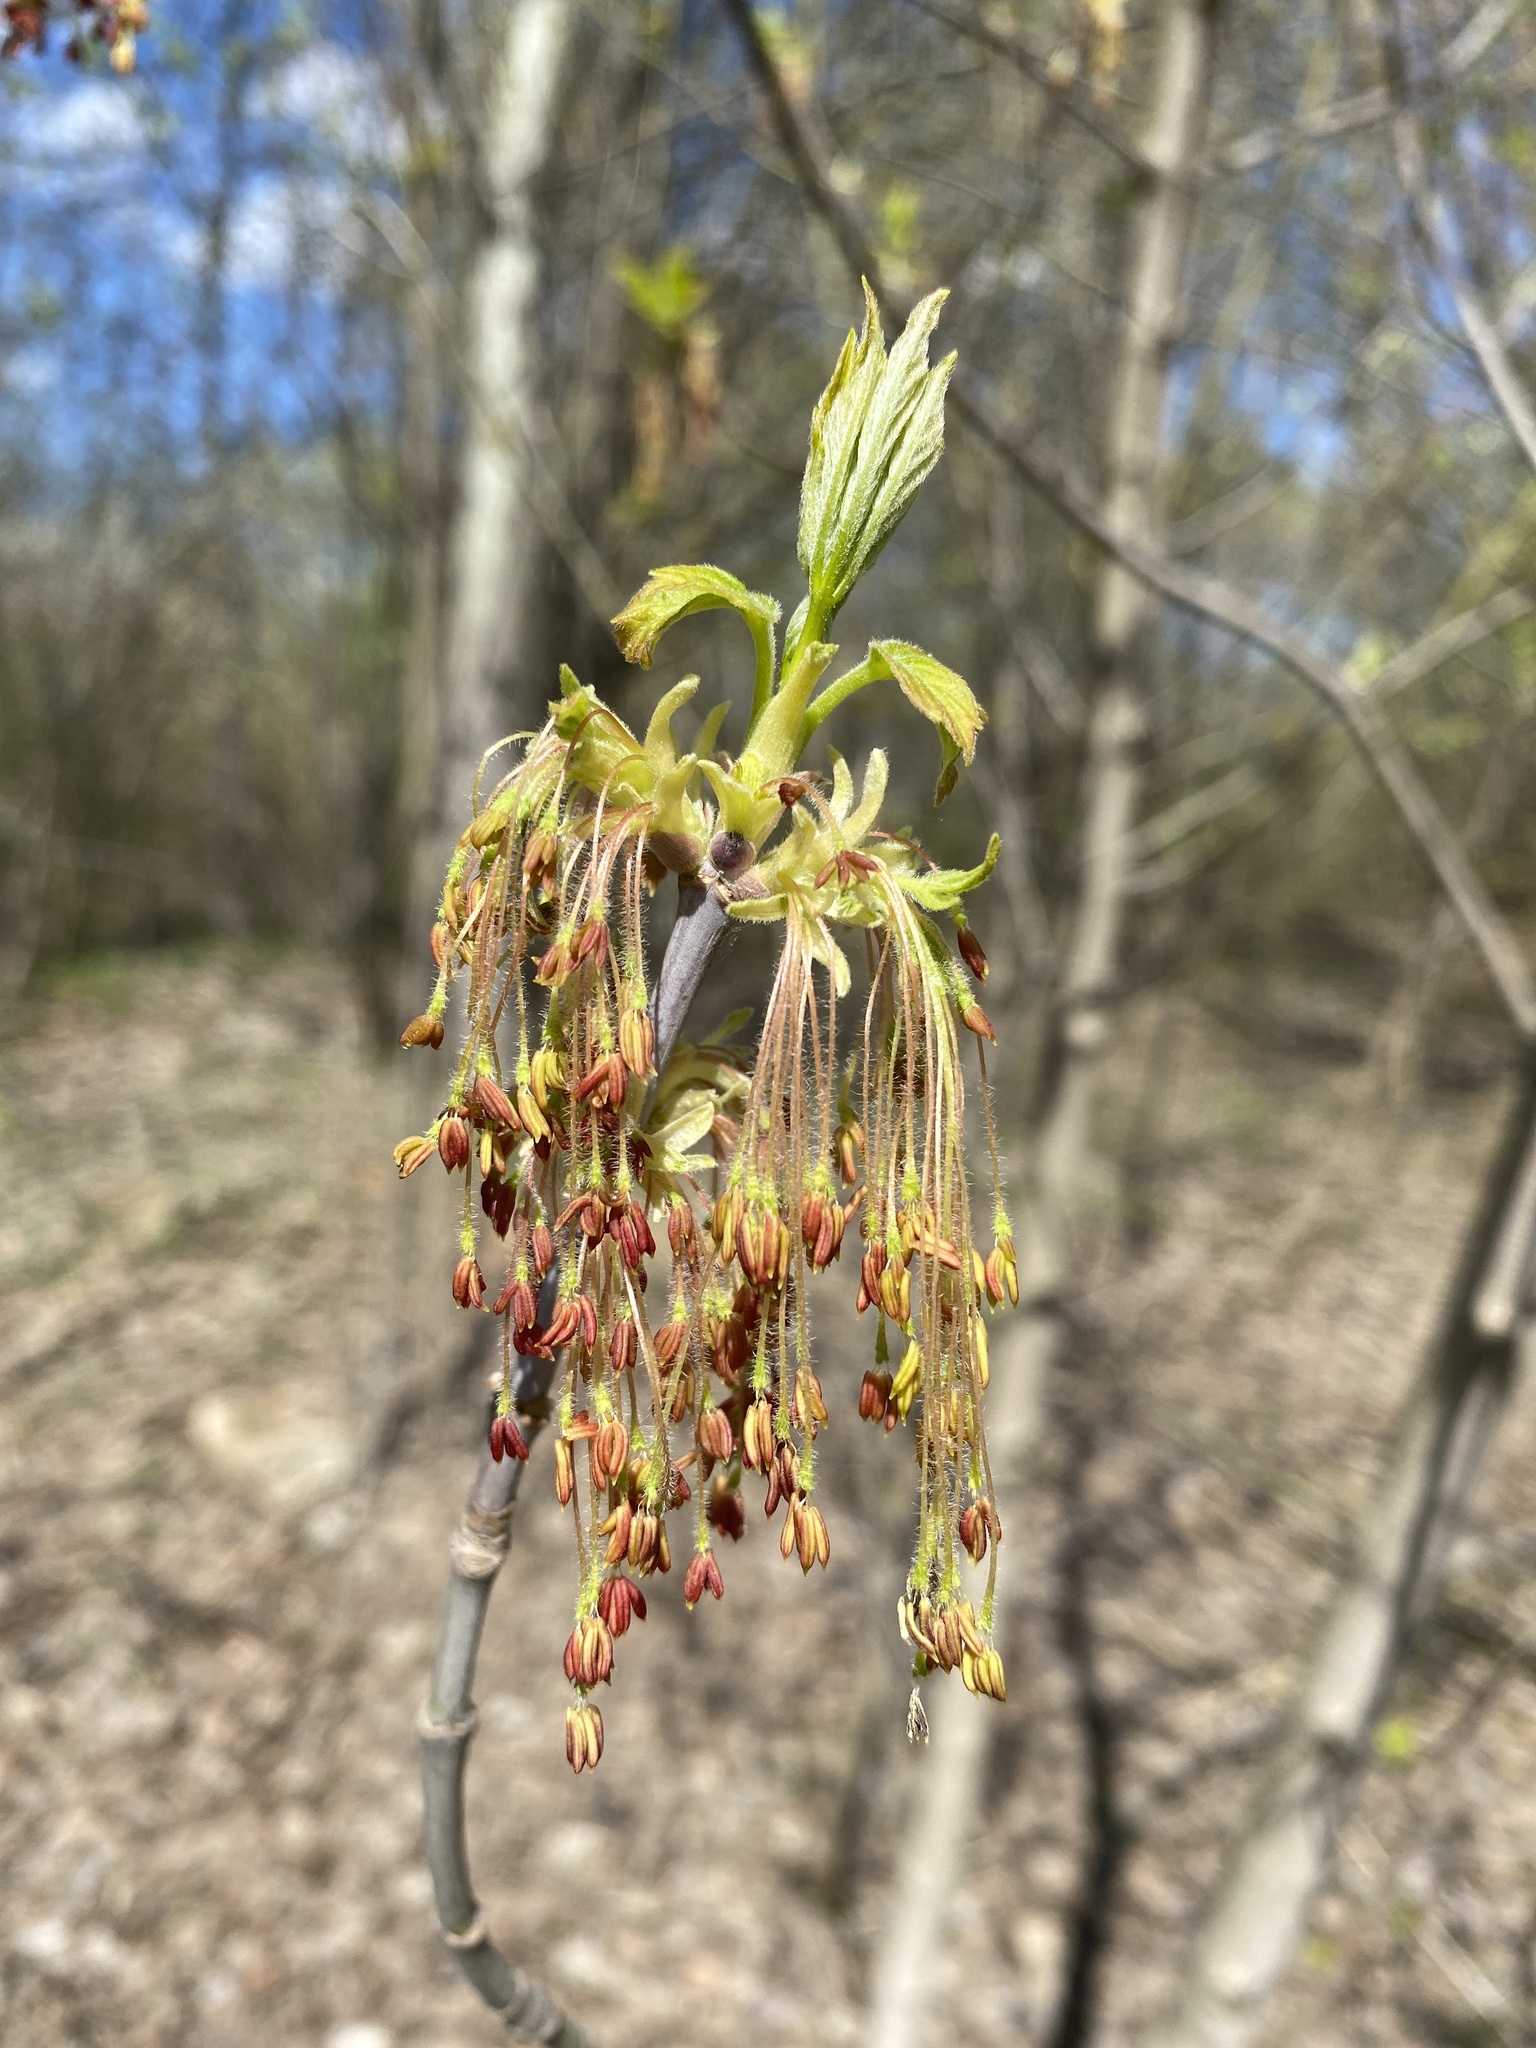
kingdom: Plantae
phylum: Tracheophyta
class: Magnoliopsida
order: Sapindales
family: Sapindaceae
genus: Acer
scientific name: Acer negundo
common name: Ashleaf maple
